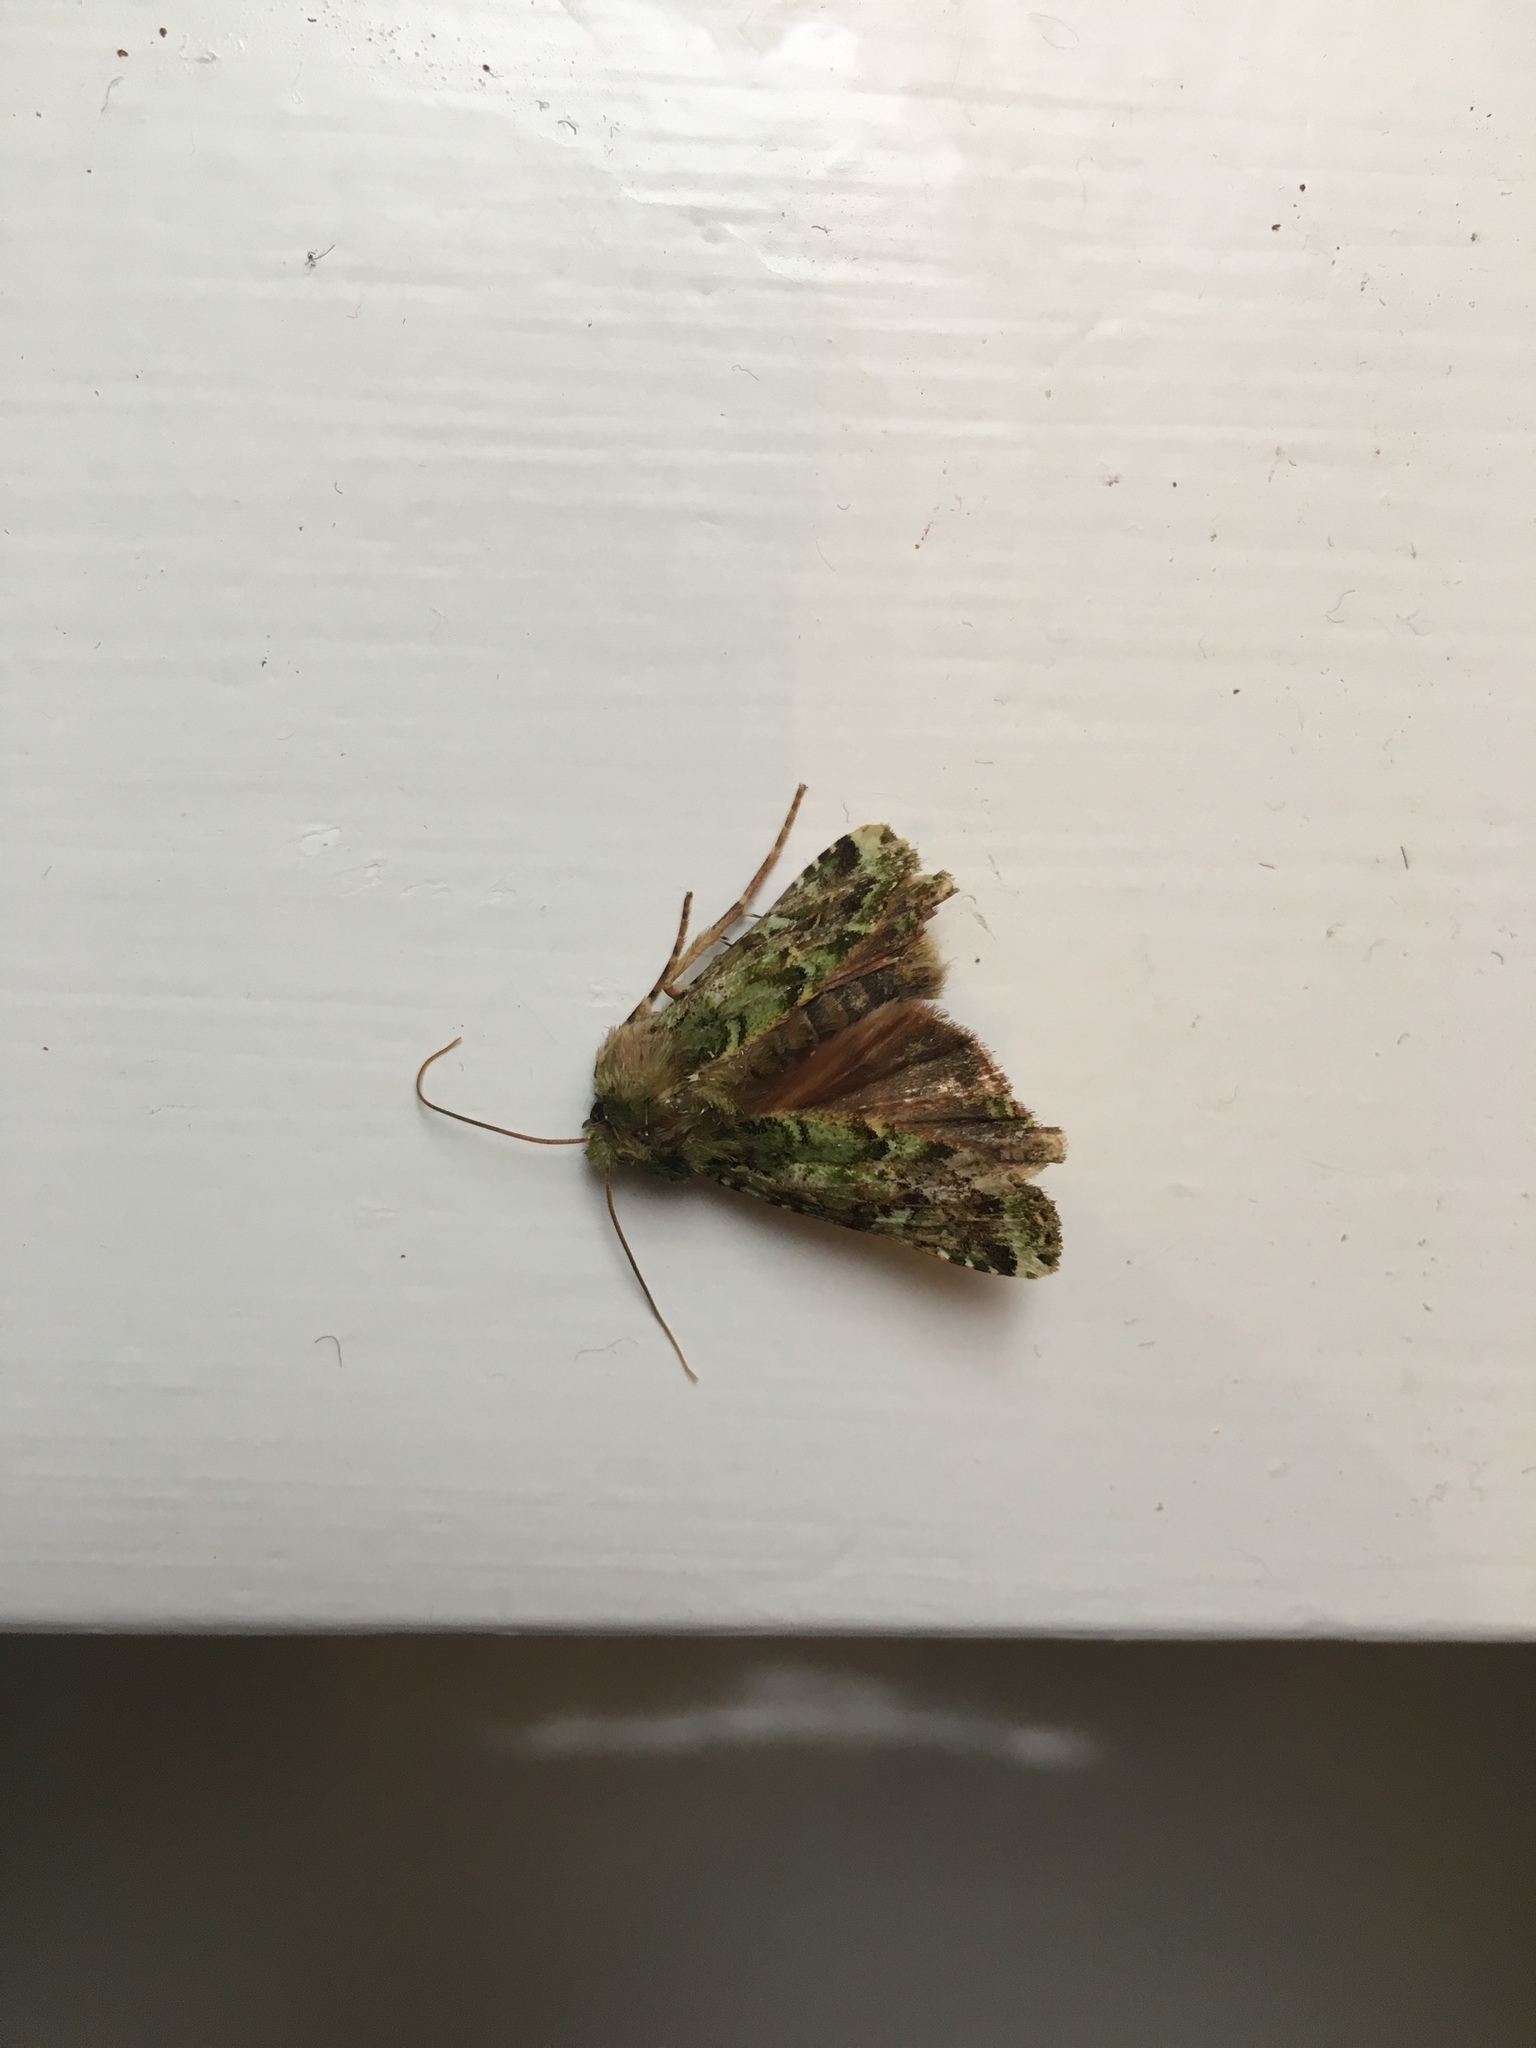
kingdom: Animalia
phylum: Arthropoda
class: Insecta
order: Lepidoptera
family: Noctuidae
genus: Feredayia
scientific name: Feredayia grammosa
